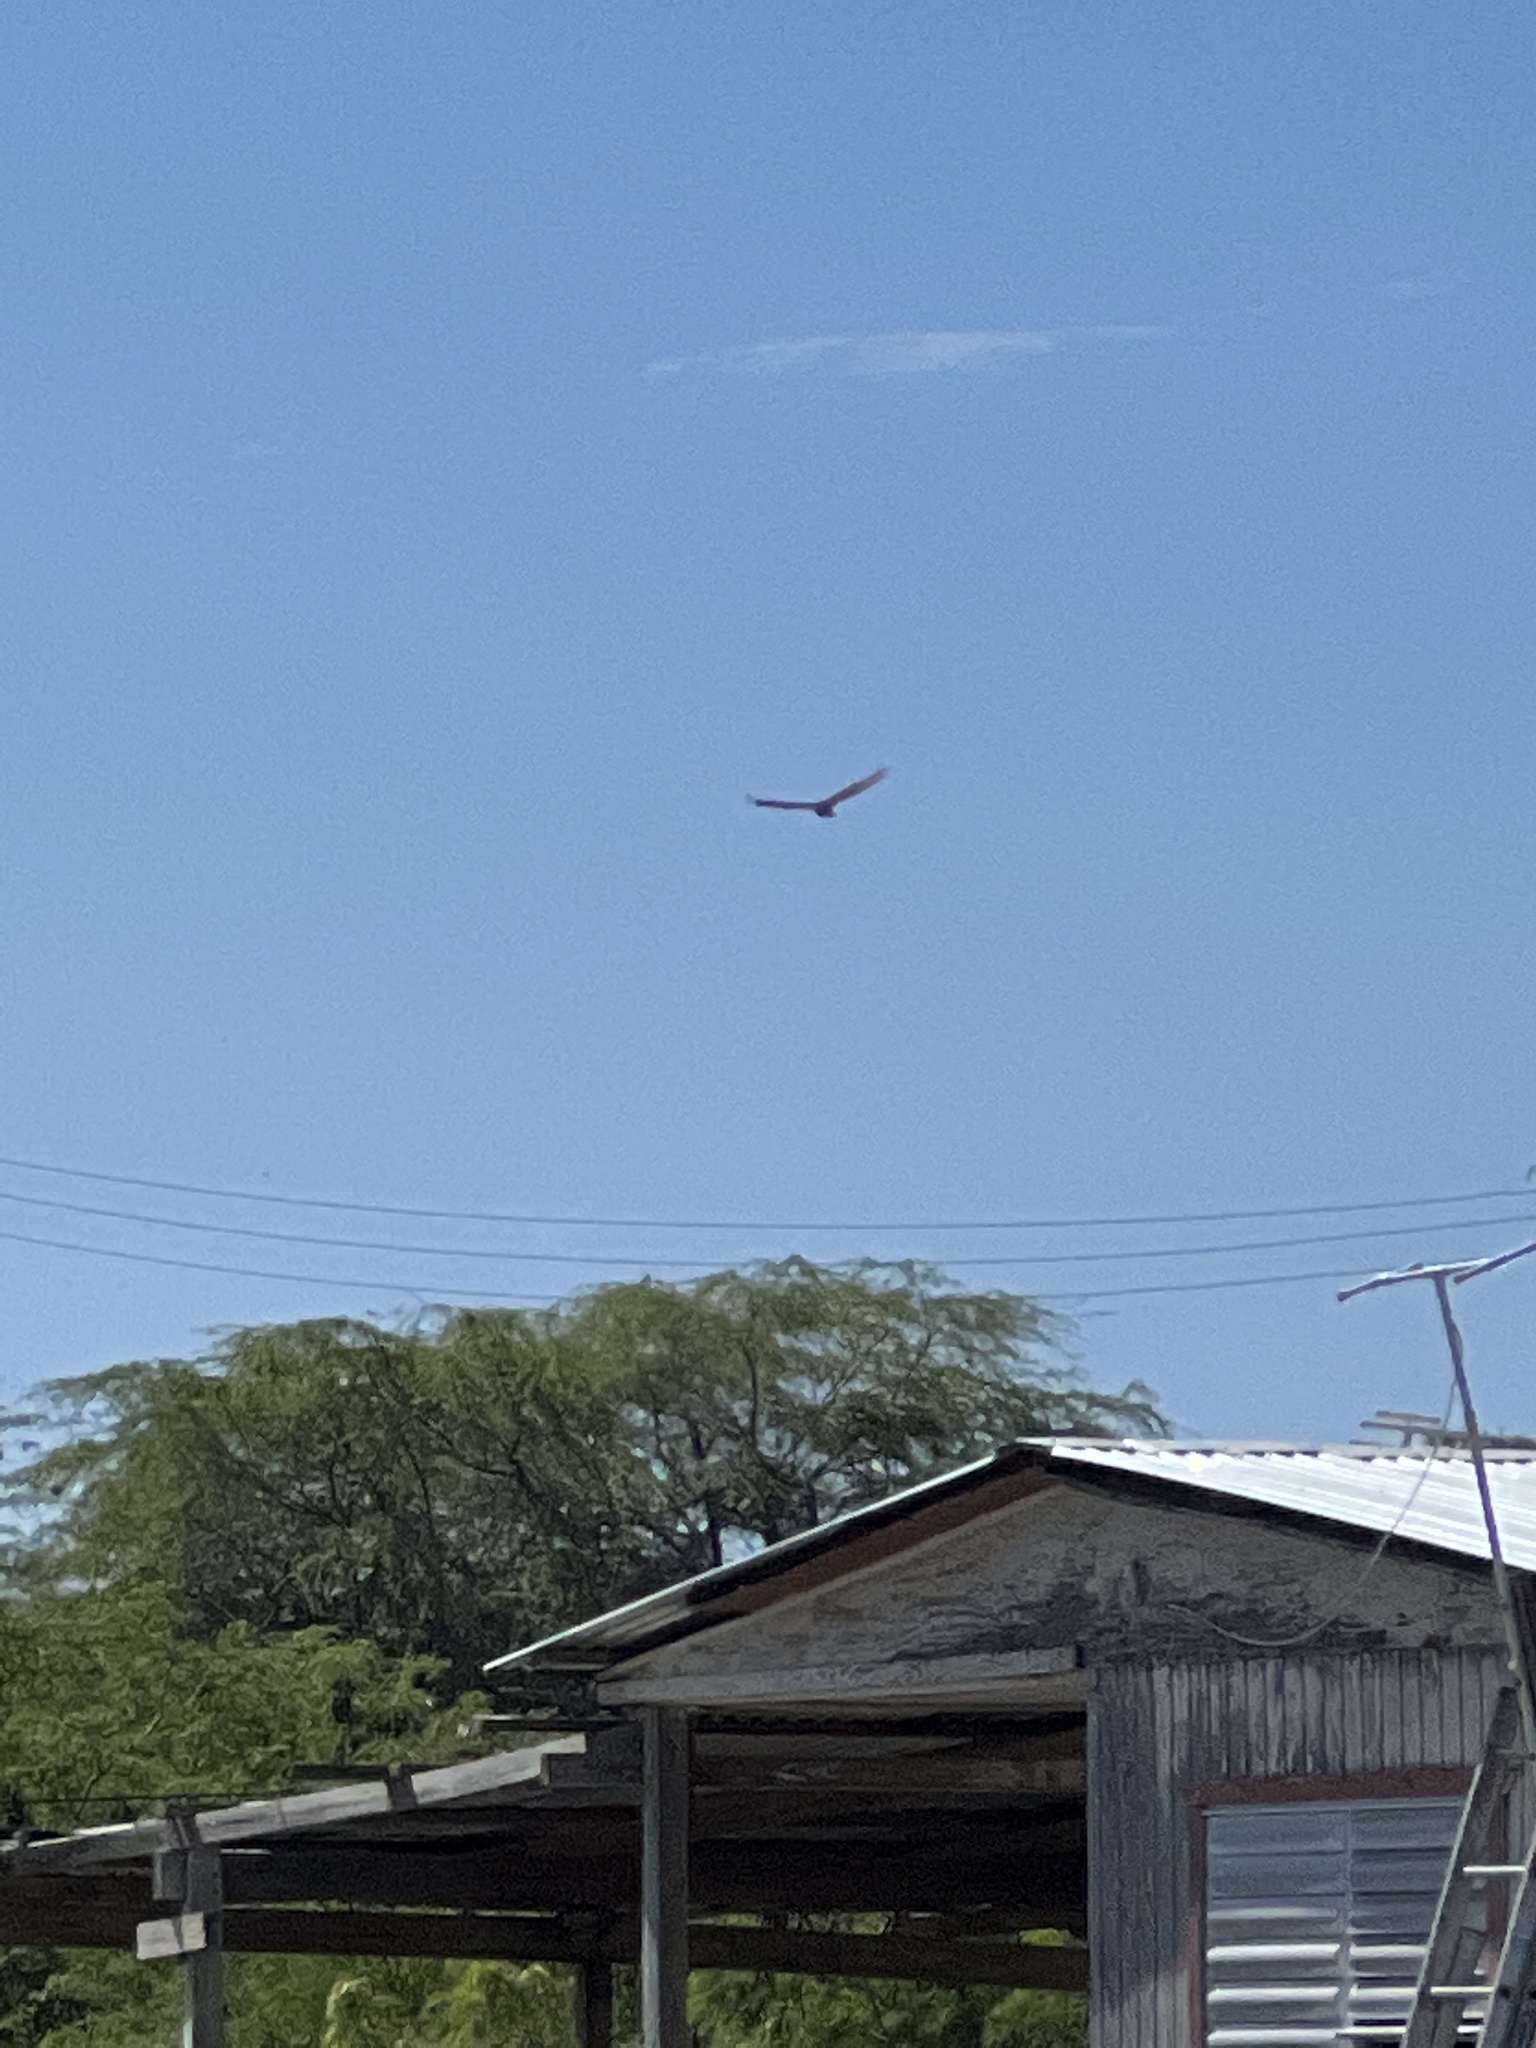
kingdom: Animalia
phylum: Chordata
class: Aves
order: Accipitriformes
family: Cathartidae
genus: Cathartes
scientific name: Cathartes aura
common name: Turkey vulture
